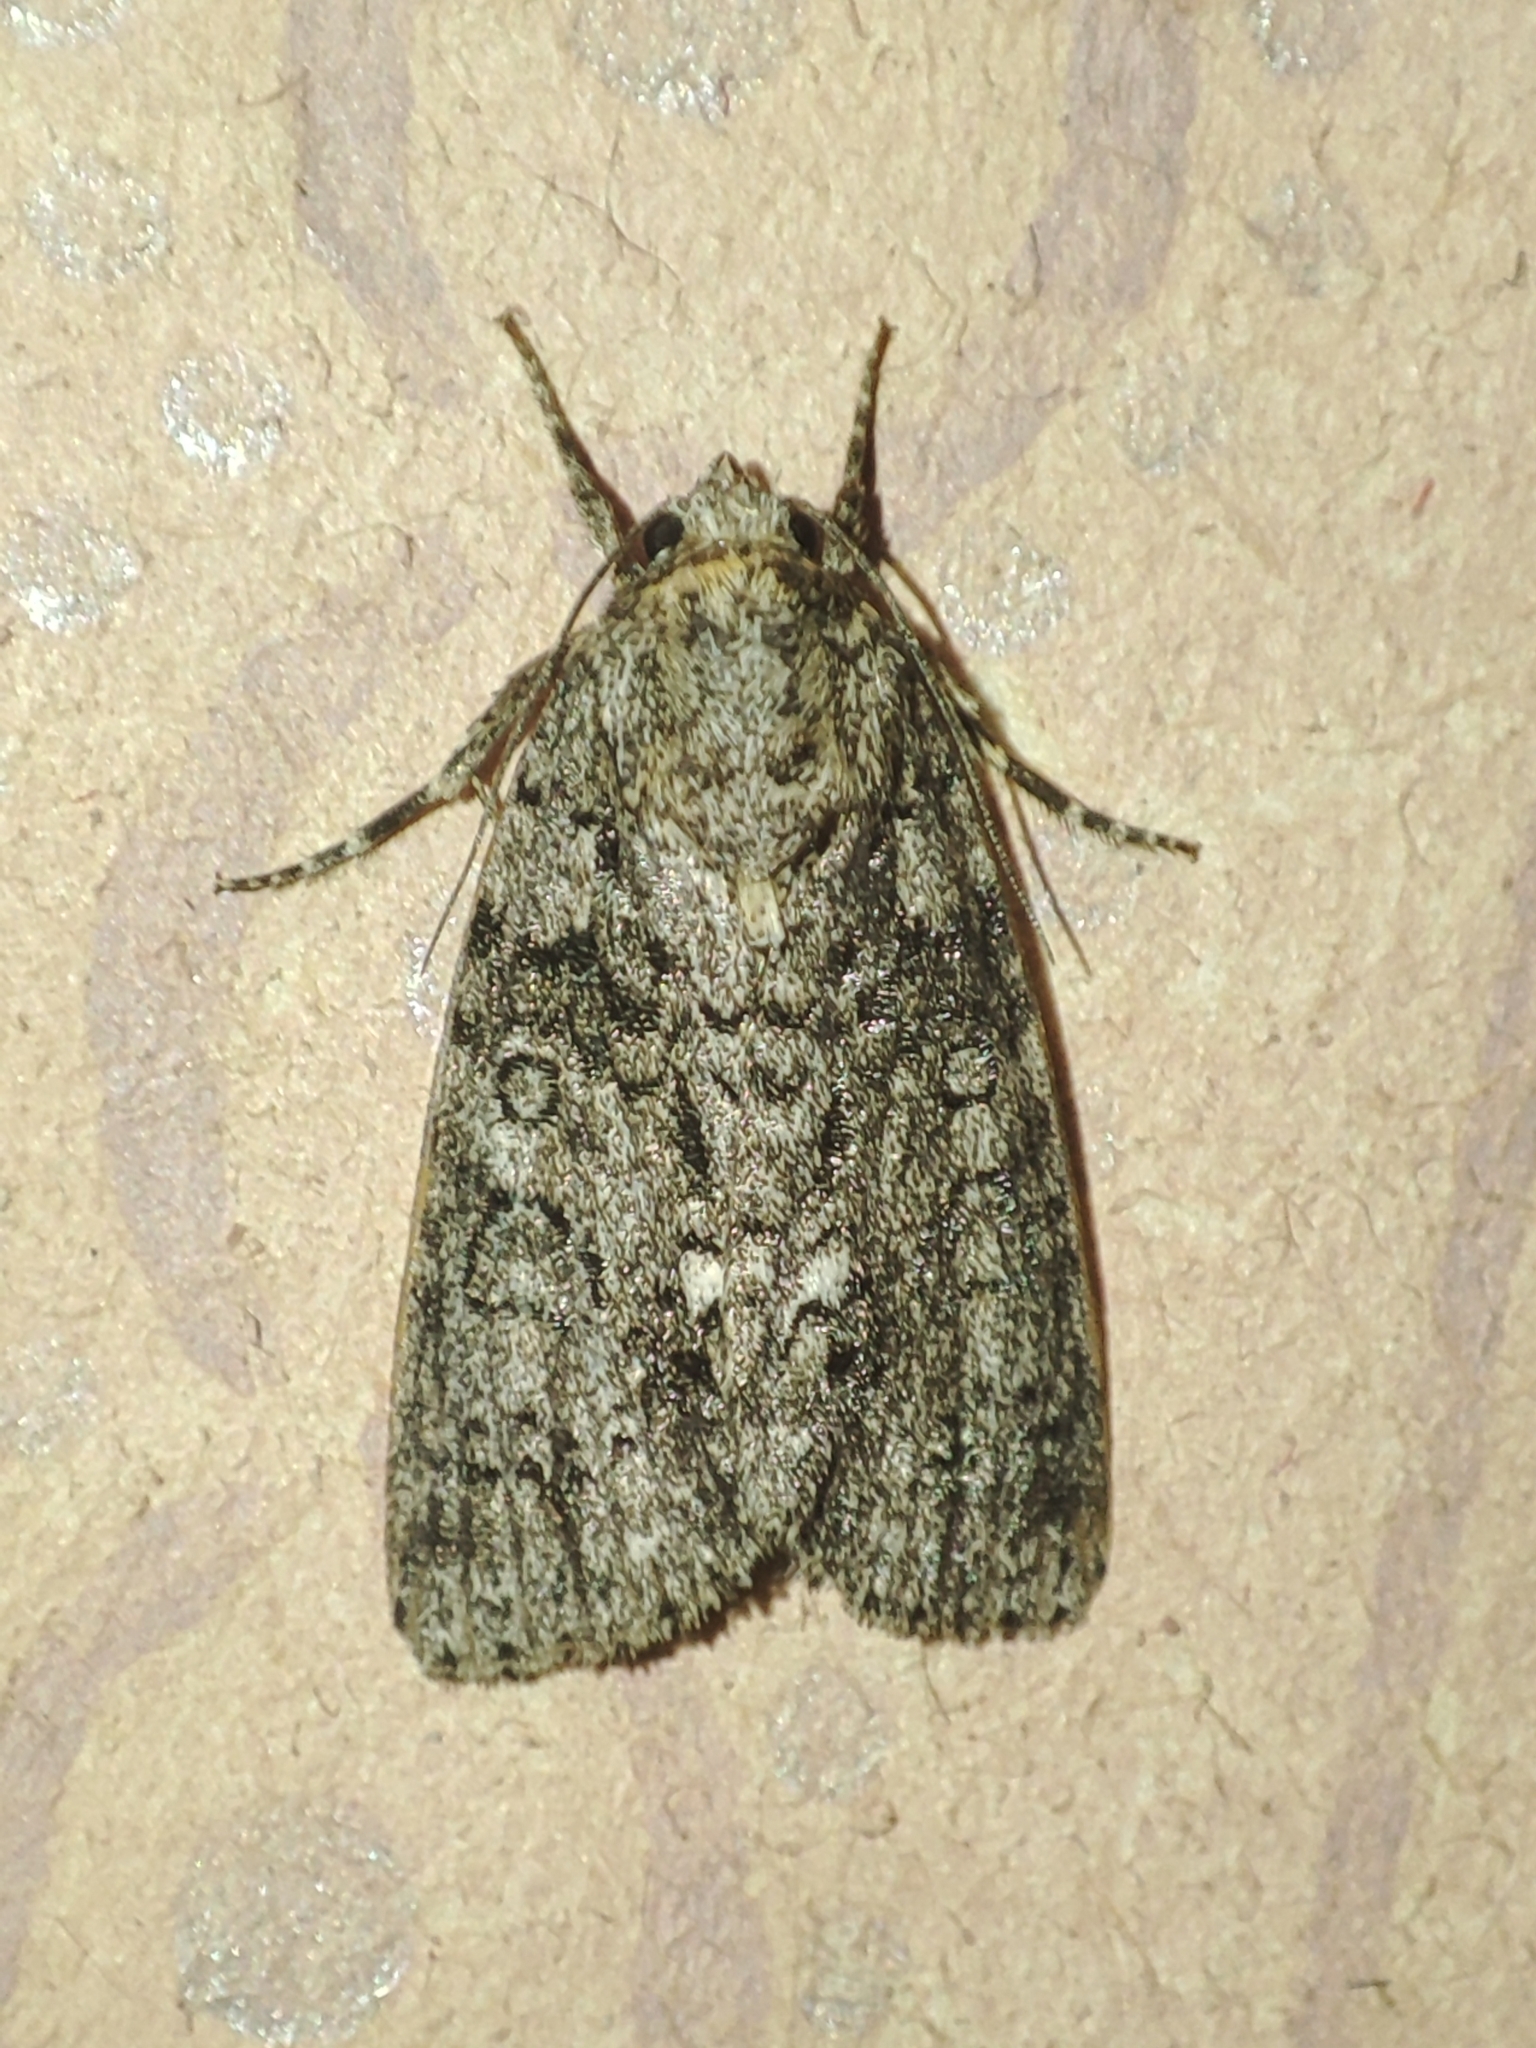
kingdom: Animalia
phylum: Arthropoda
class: Insecta
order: Lepidoptera
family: Noctuidae
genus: Acronicta
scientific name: Acronicta rumicis
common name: Knot grass
